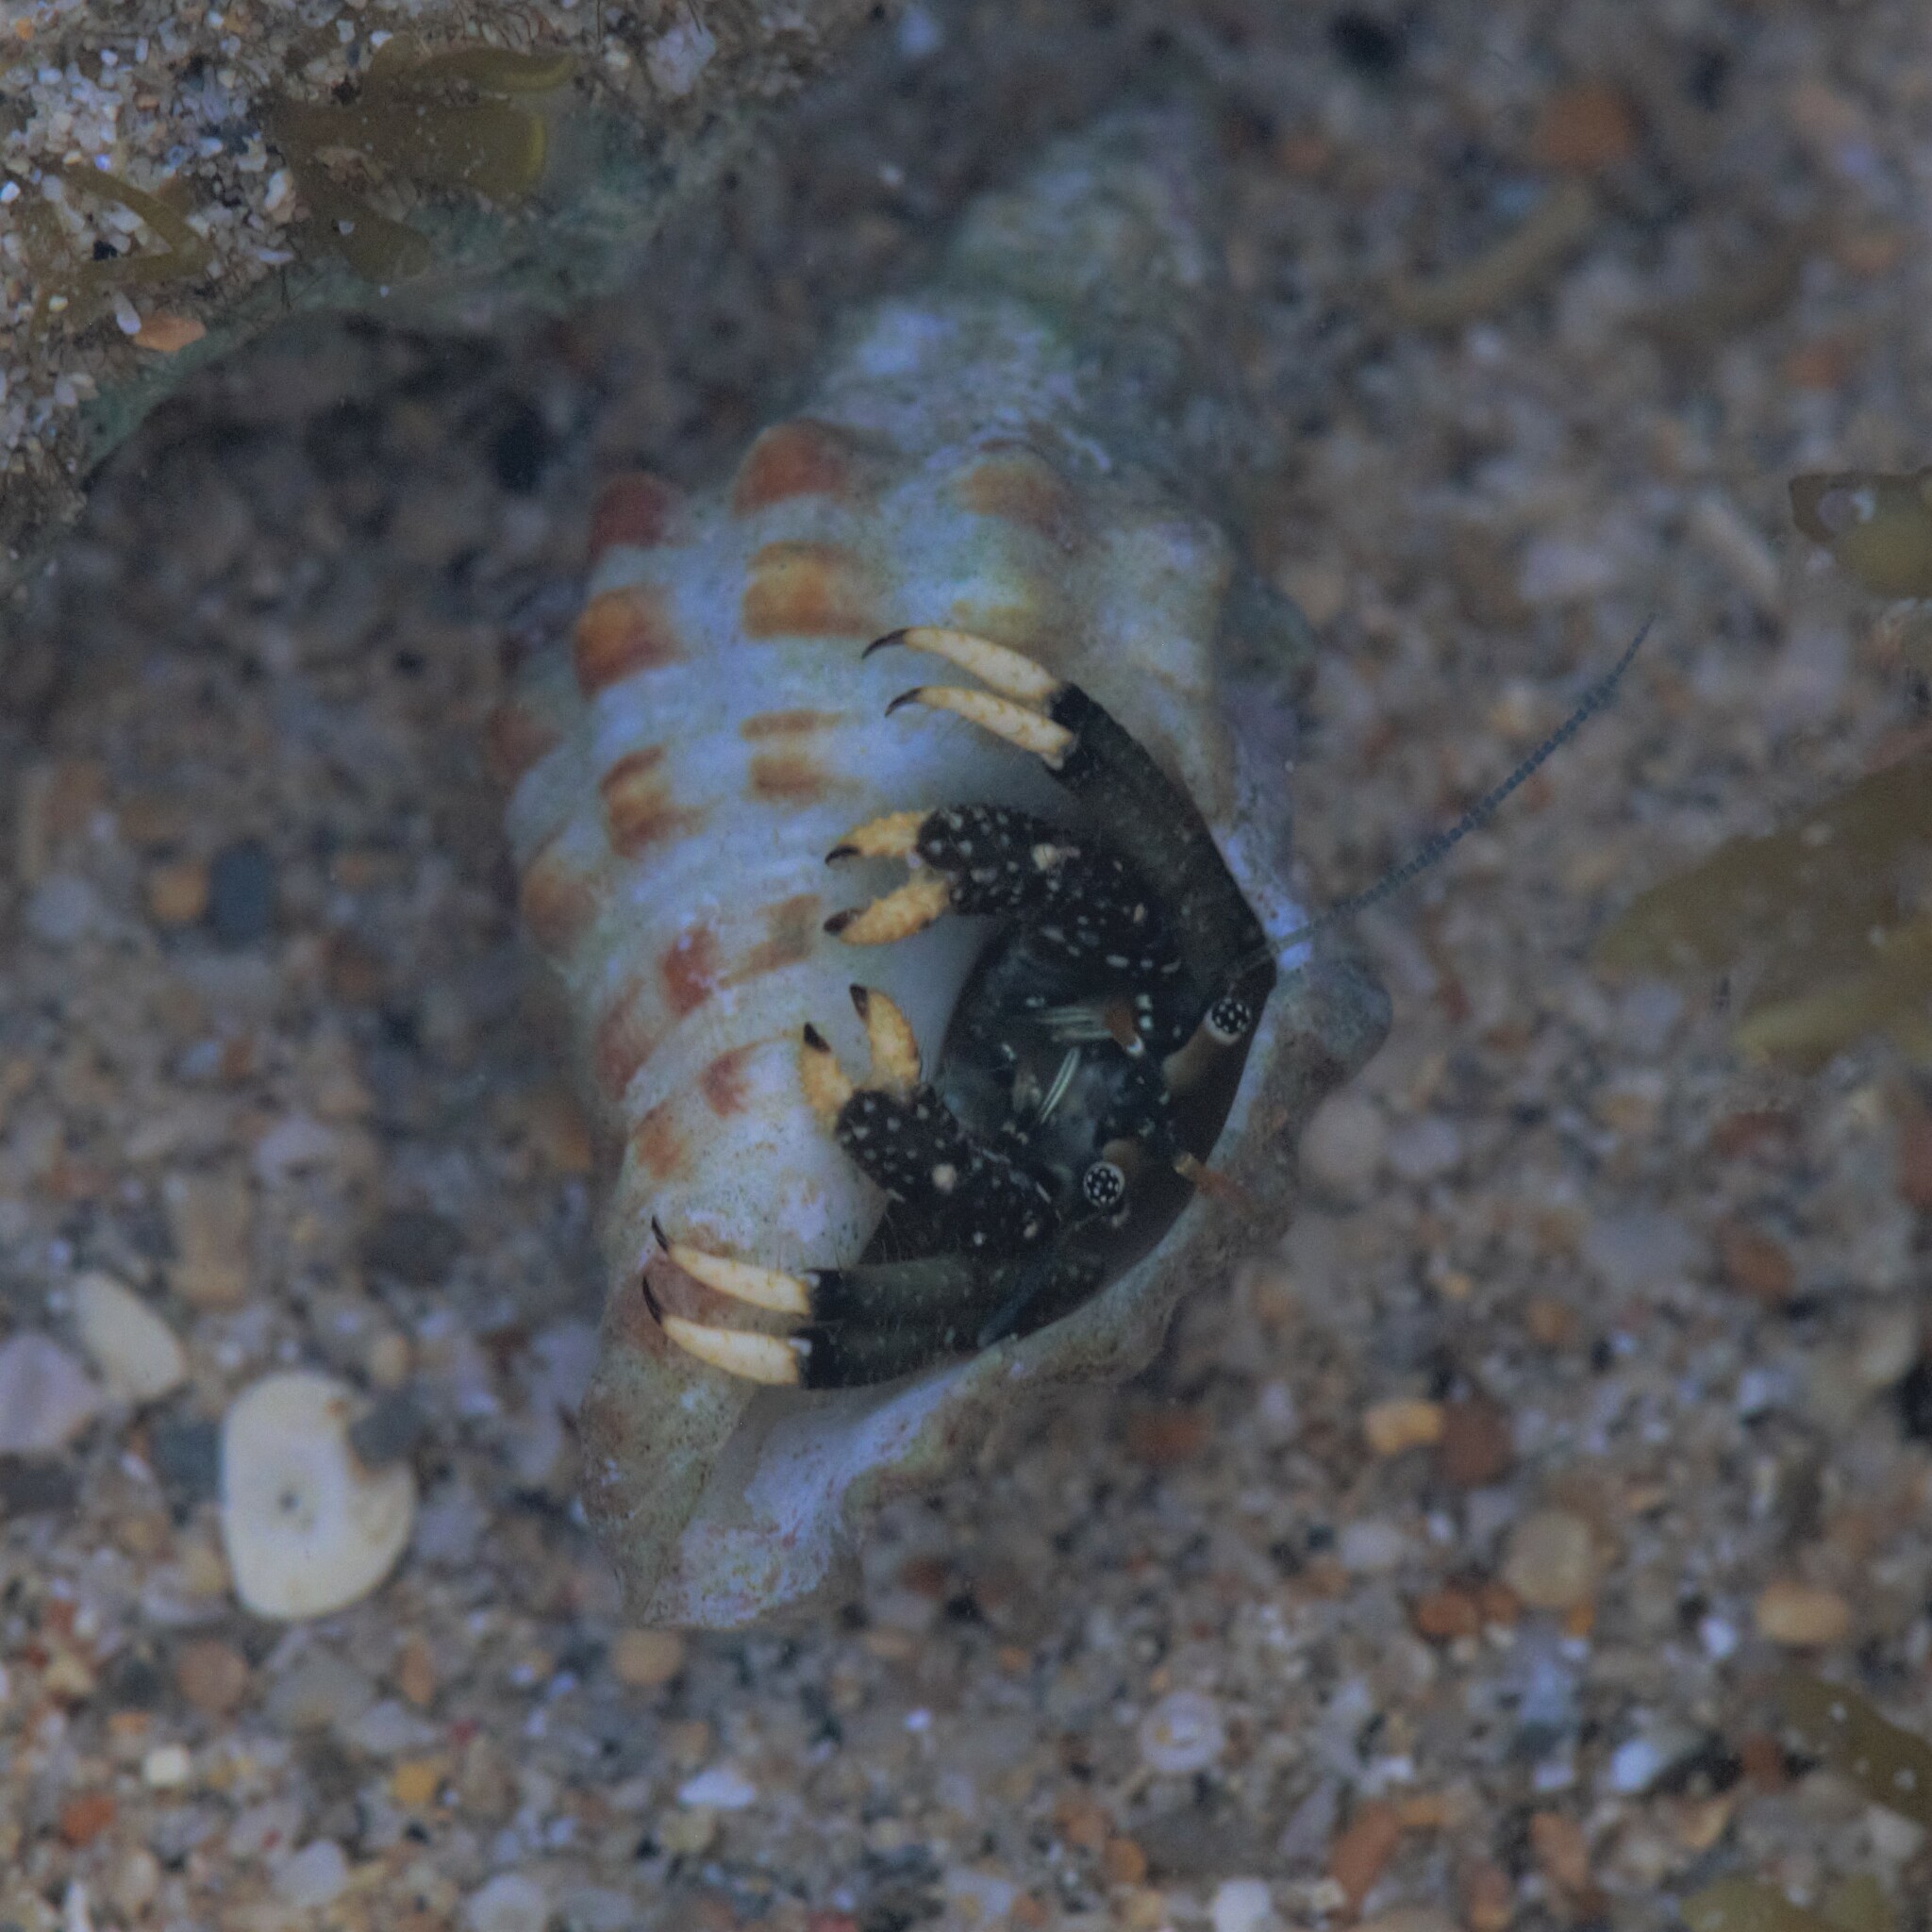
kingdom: Animalia
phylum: Arthropoda
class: Malacostraca
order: Decapoda
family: Diogenidae
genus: Clibanarius
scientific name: Clibanarius virescens
